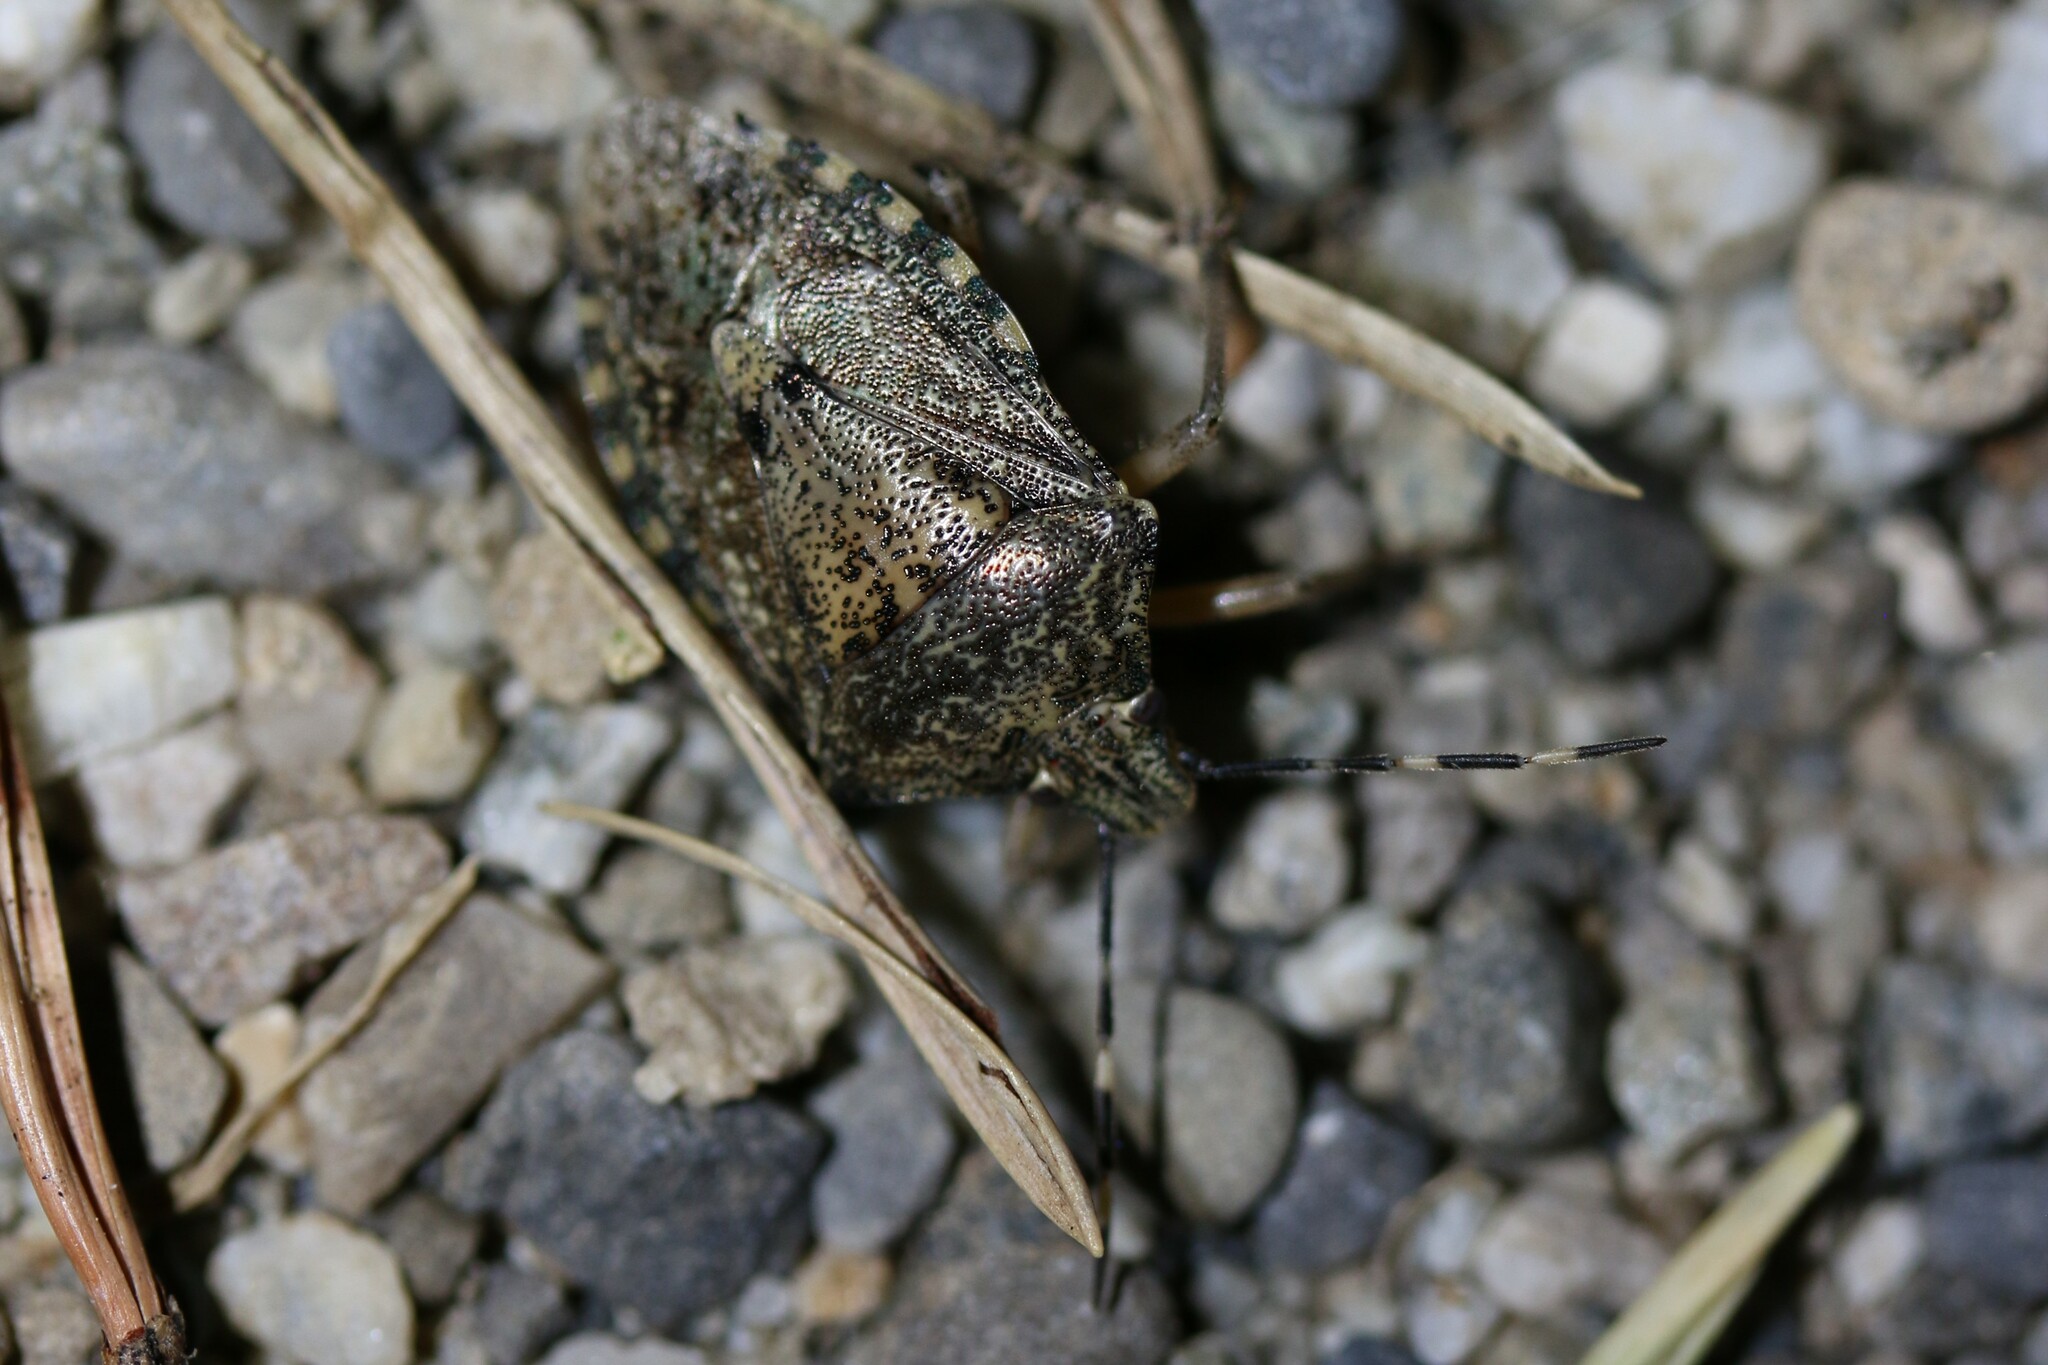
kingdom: Animalia
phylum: Arthropoda
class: Insecta
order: Hemiptera
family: Pentatomidae
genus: Rhaphigaster
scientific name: Rhaphigaster nebulosa
